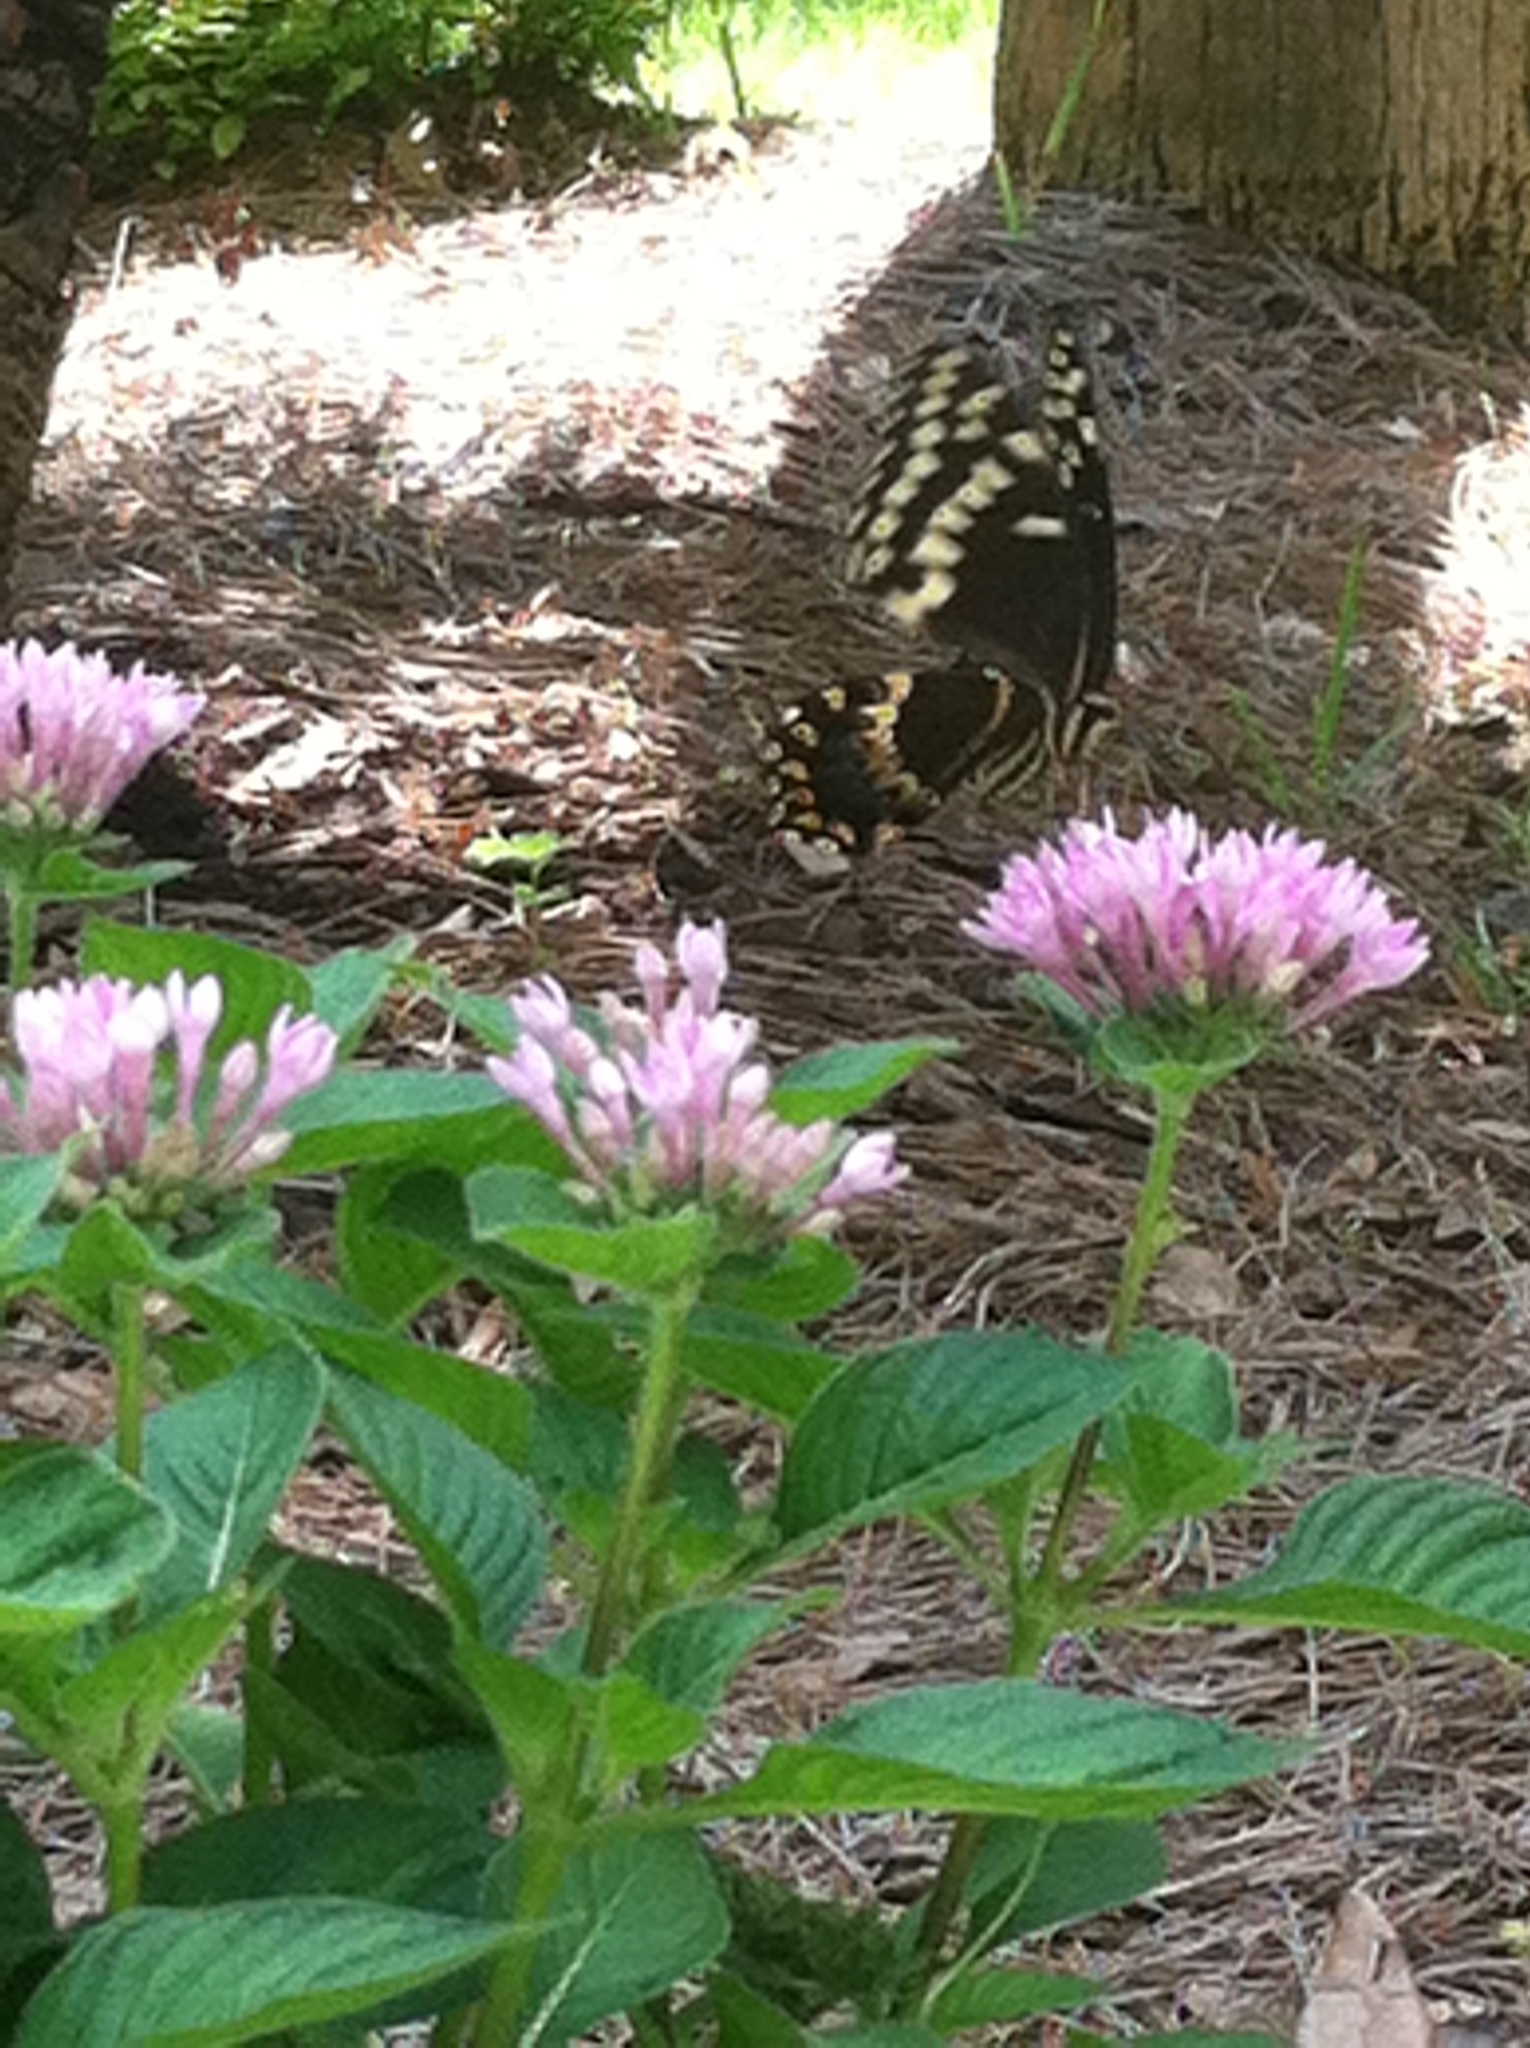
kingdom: Animalia
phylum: Arthropoda
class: Insecta
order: Lepidoptera
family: Papilionidae
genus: Papilio
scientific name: Papilio palamedes
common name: Palamedes swallowtail
